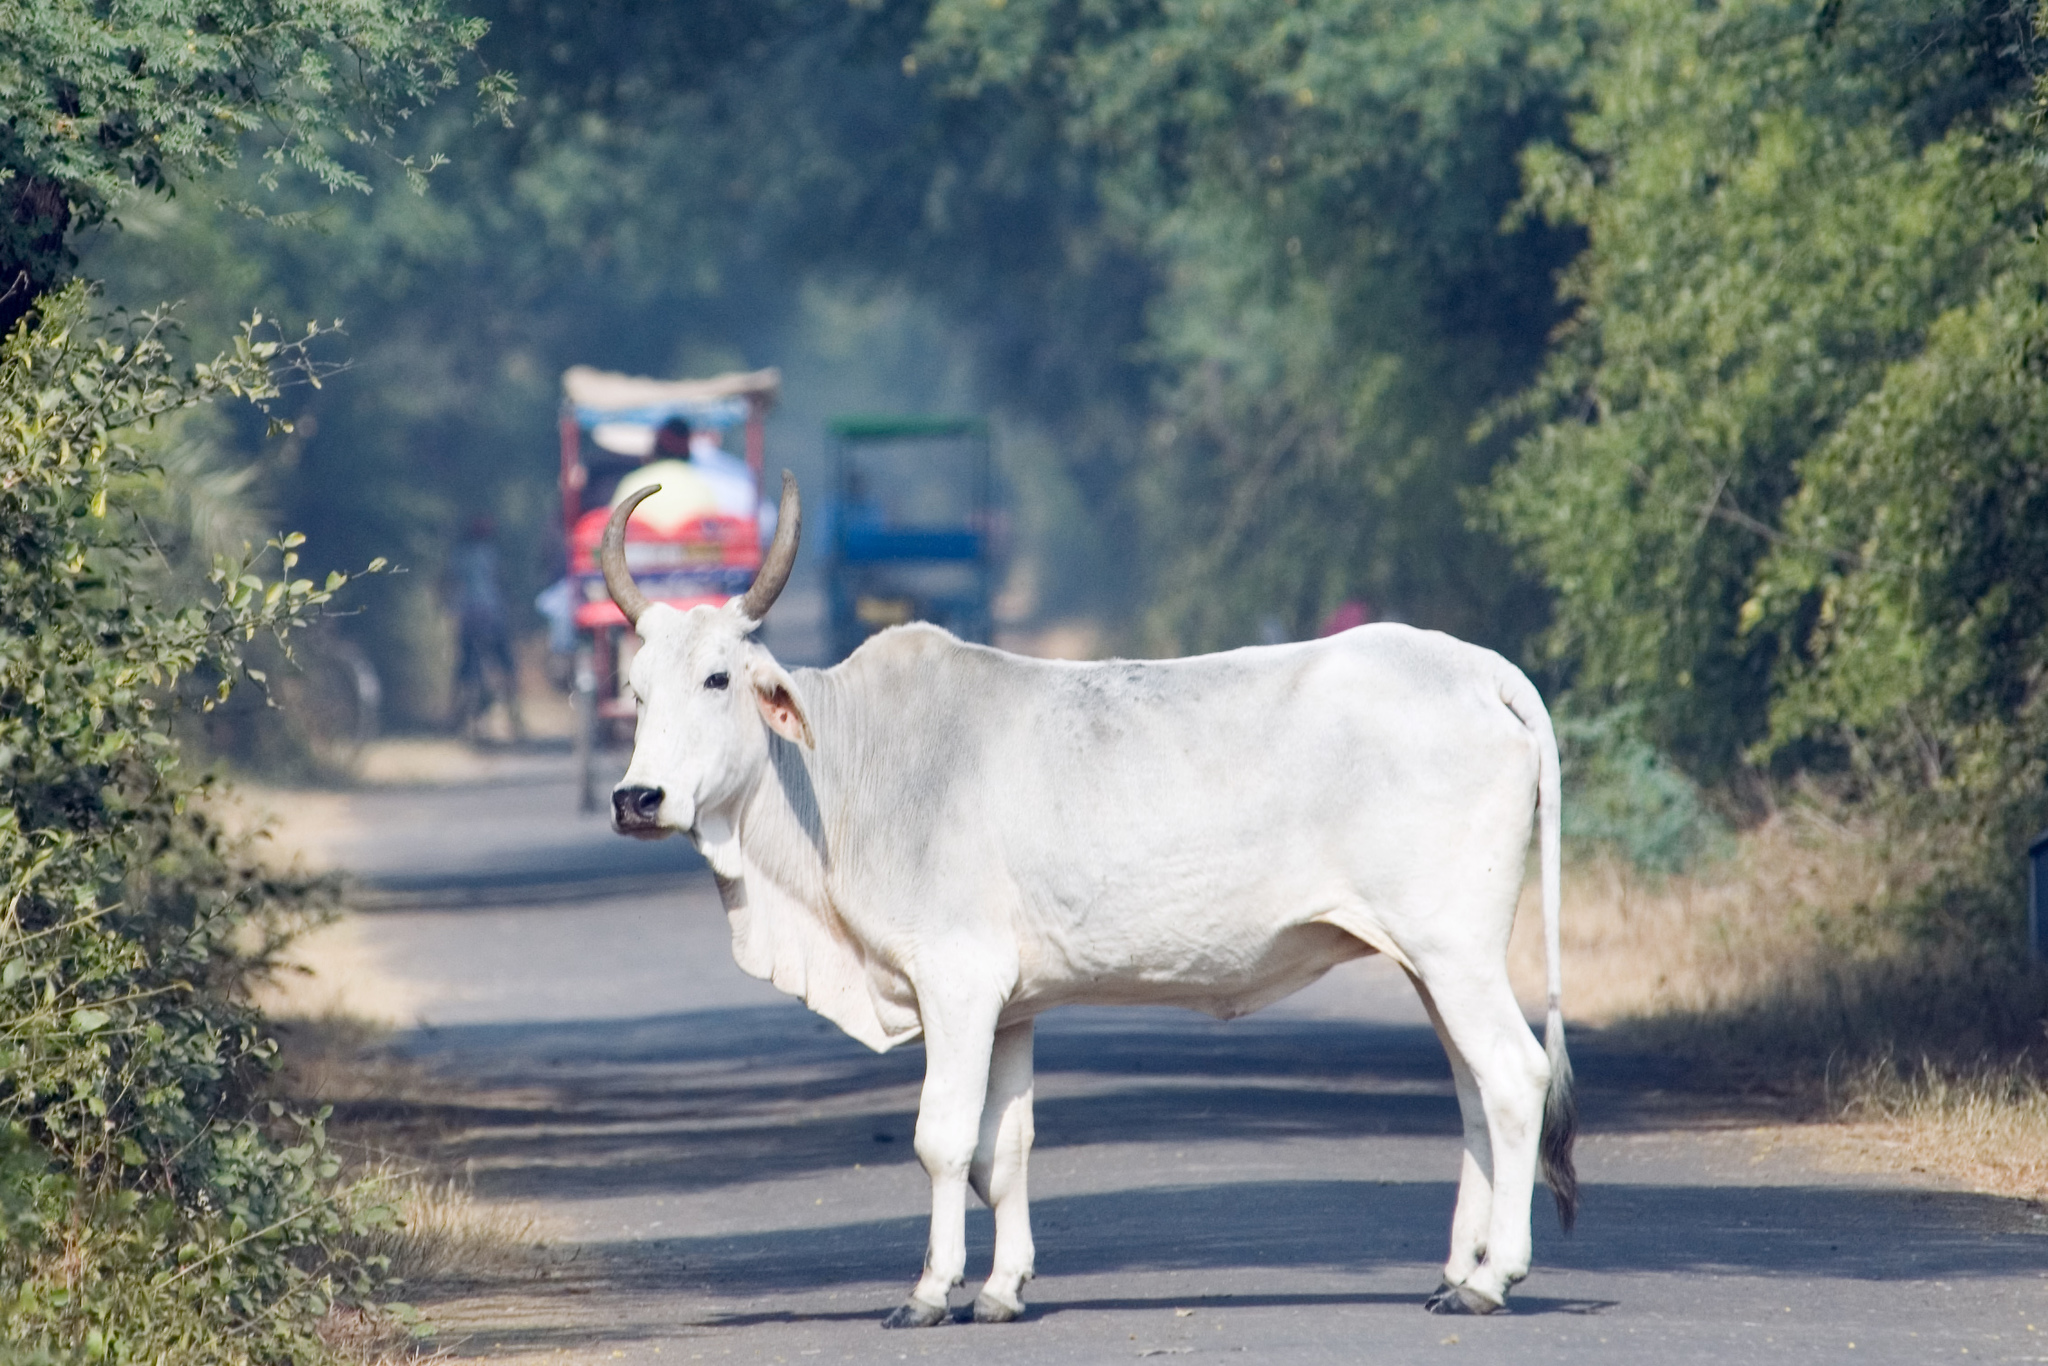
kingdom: Animalia
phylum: Chordata
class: Mammalia
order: Artiodactyla
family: Bovidae
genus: Bos
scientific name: Bos taurus
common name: Domesticated cattle
